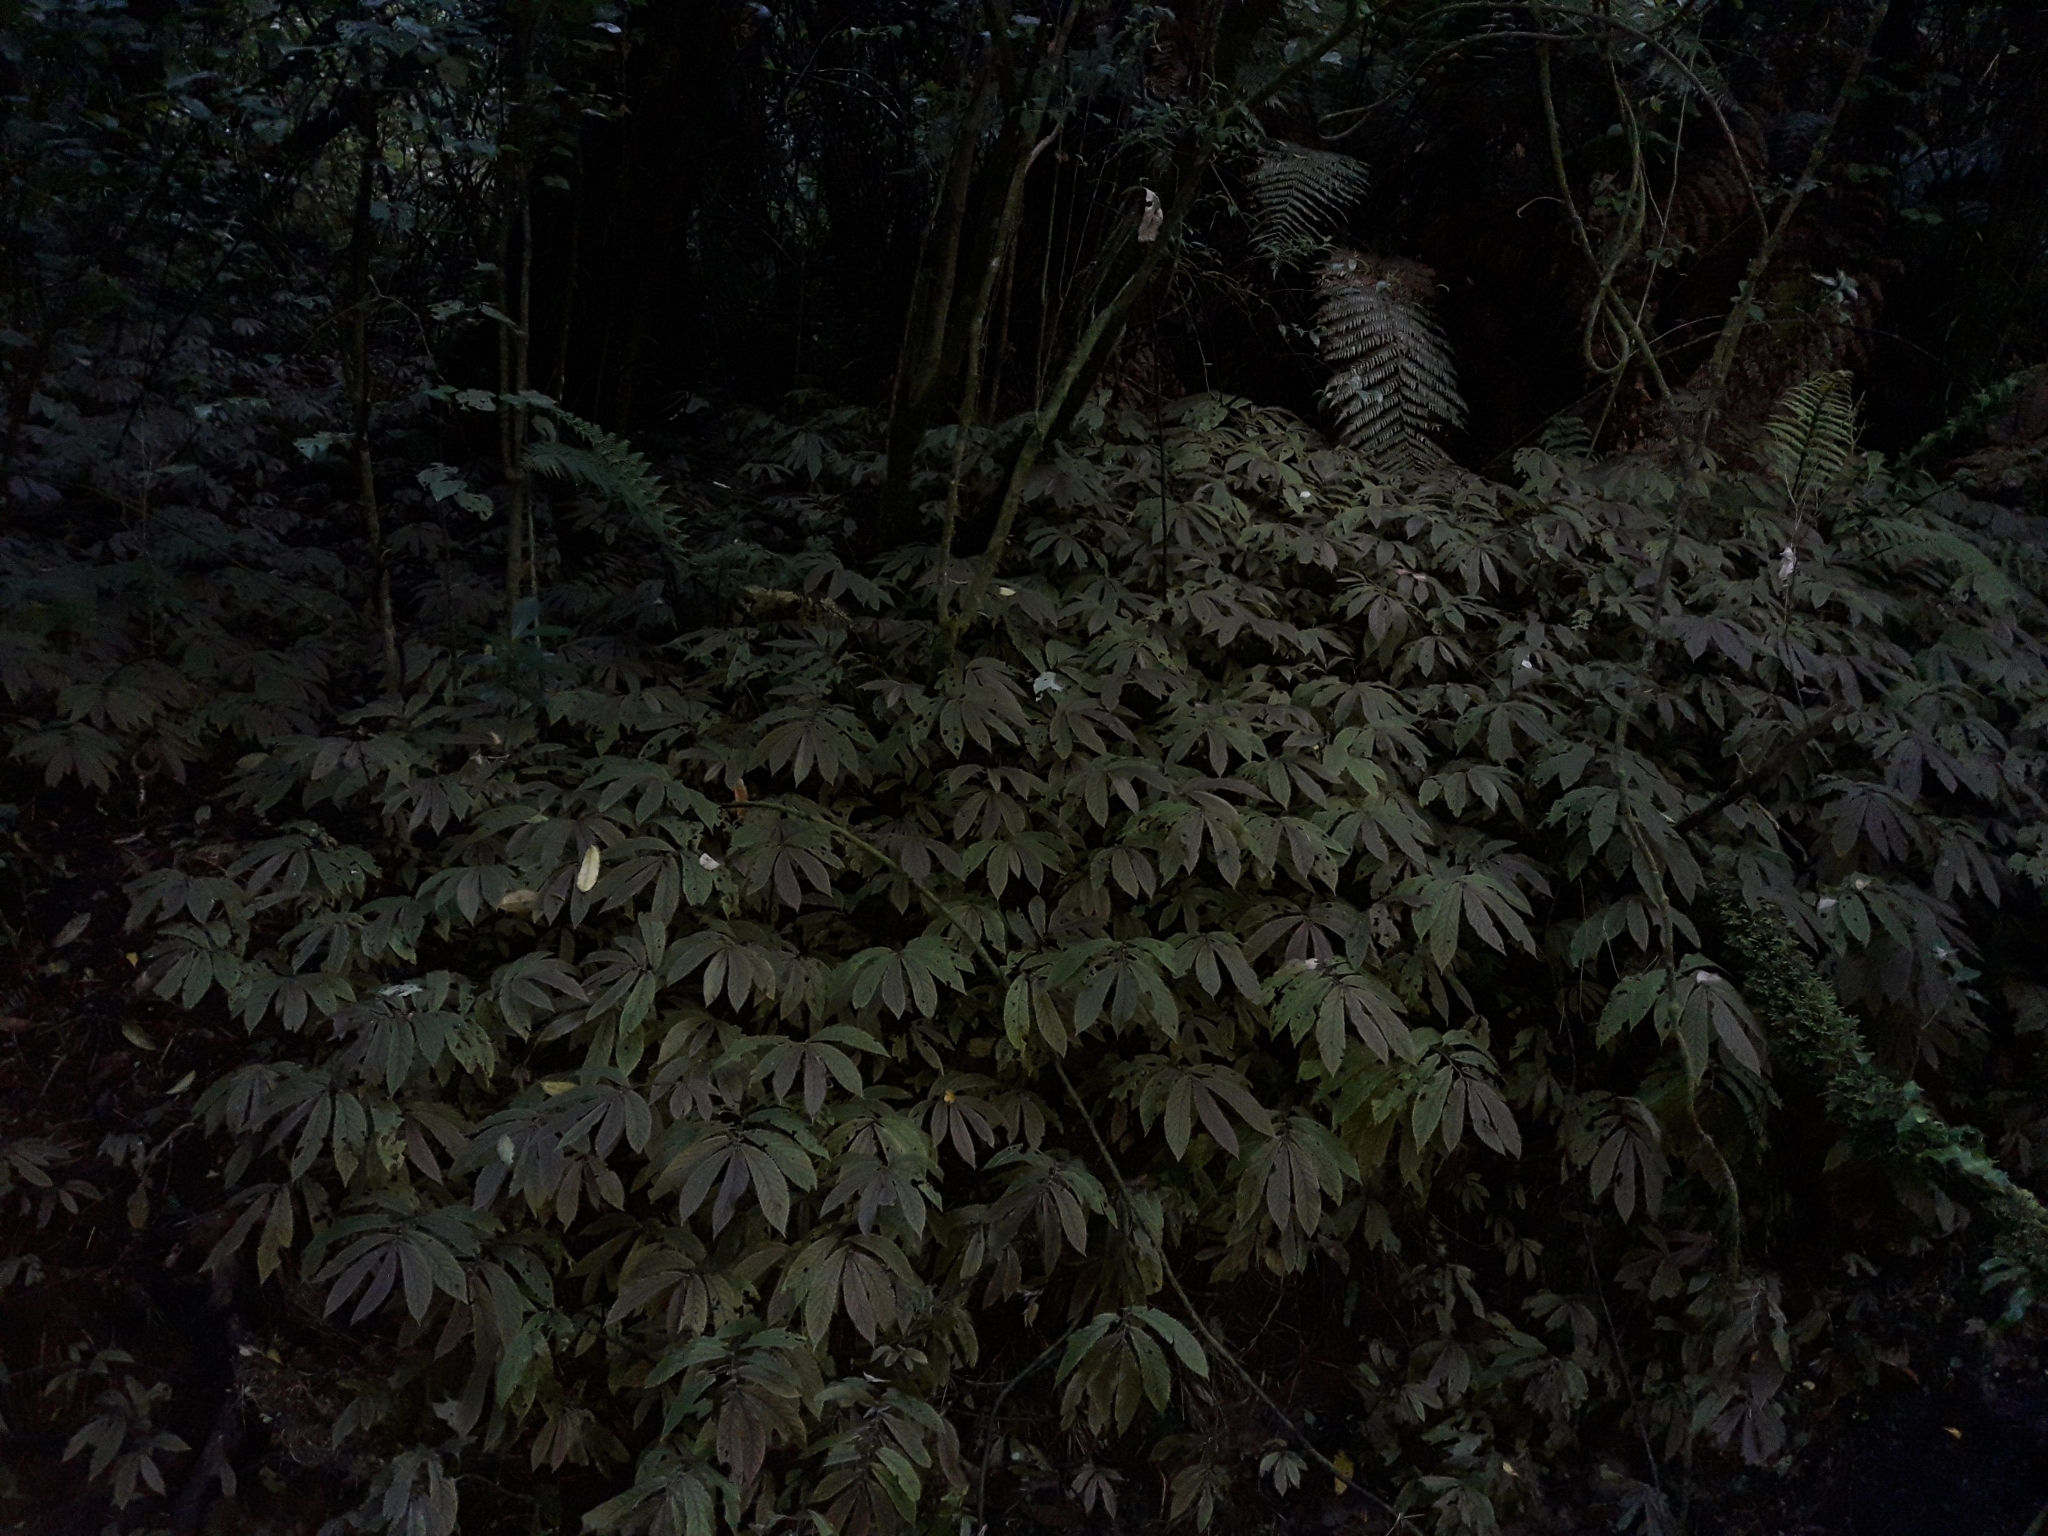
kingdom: Plantae
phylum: Tracheophyta
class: Magnoliopsida
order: Rosales
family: Urticaceae
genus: Elatostema
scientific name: Elatostema rugosum
